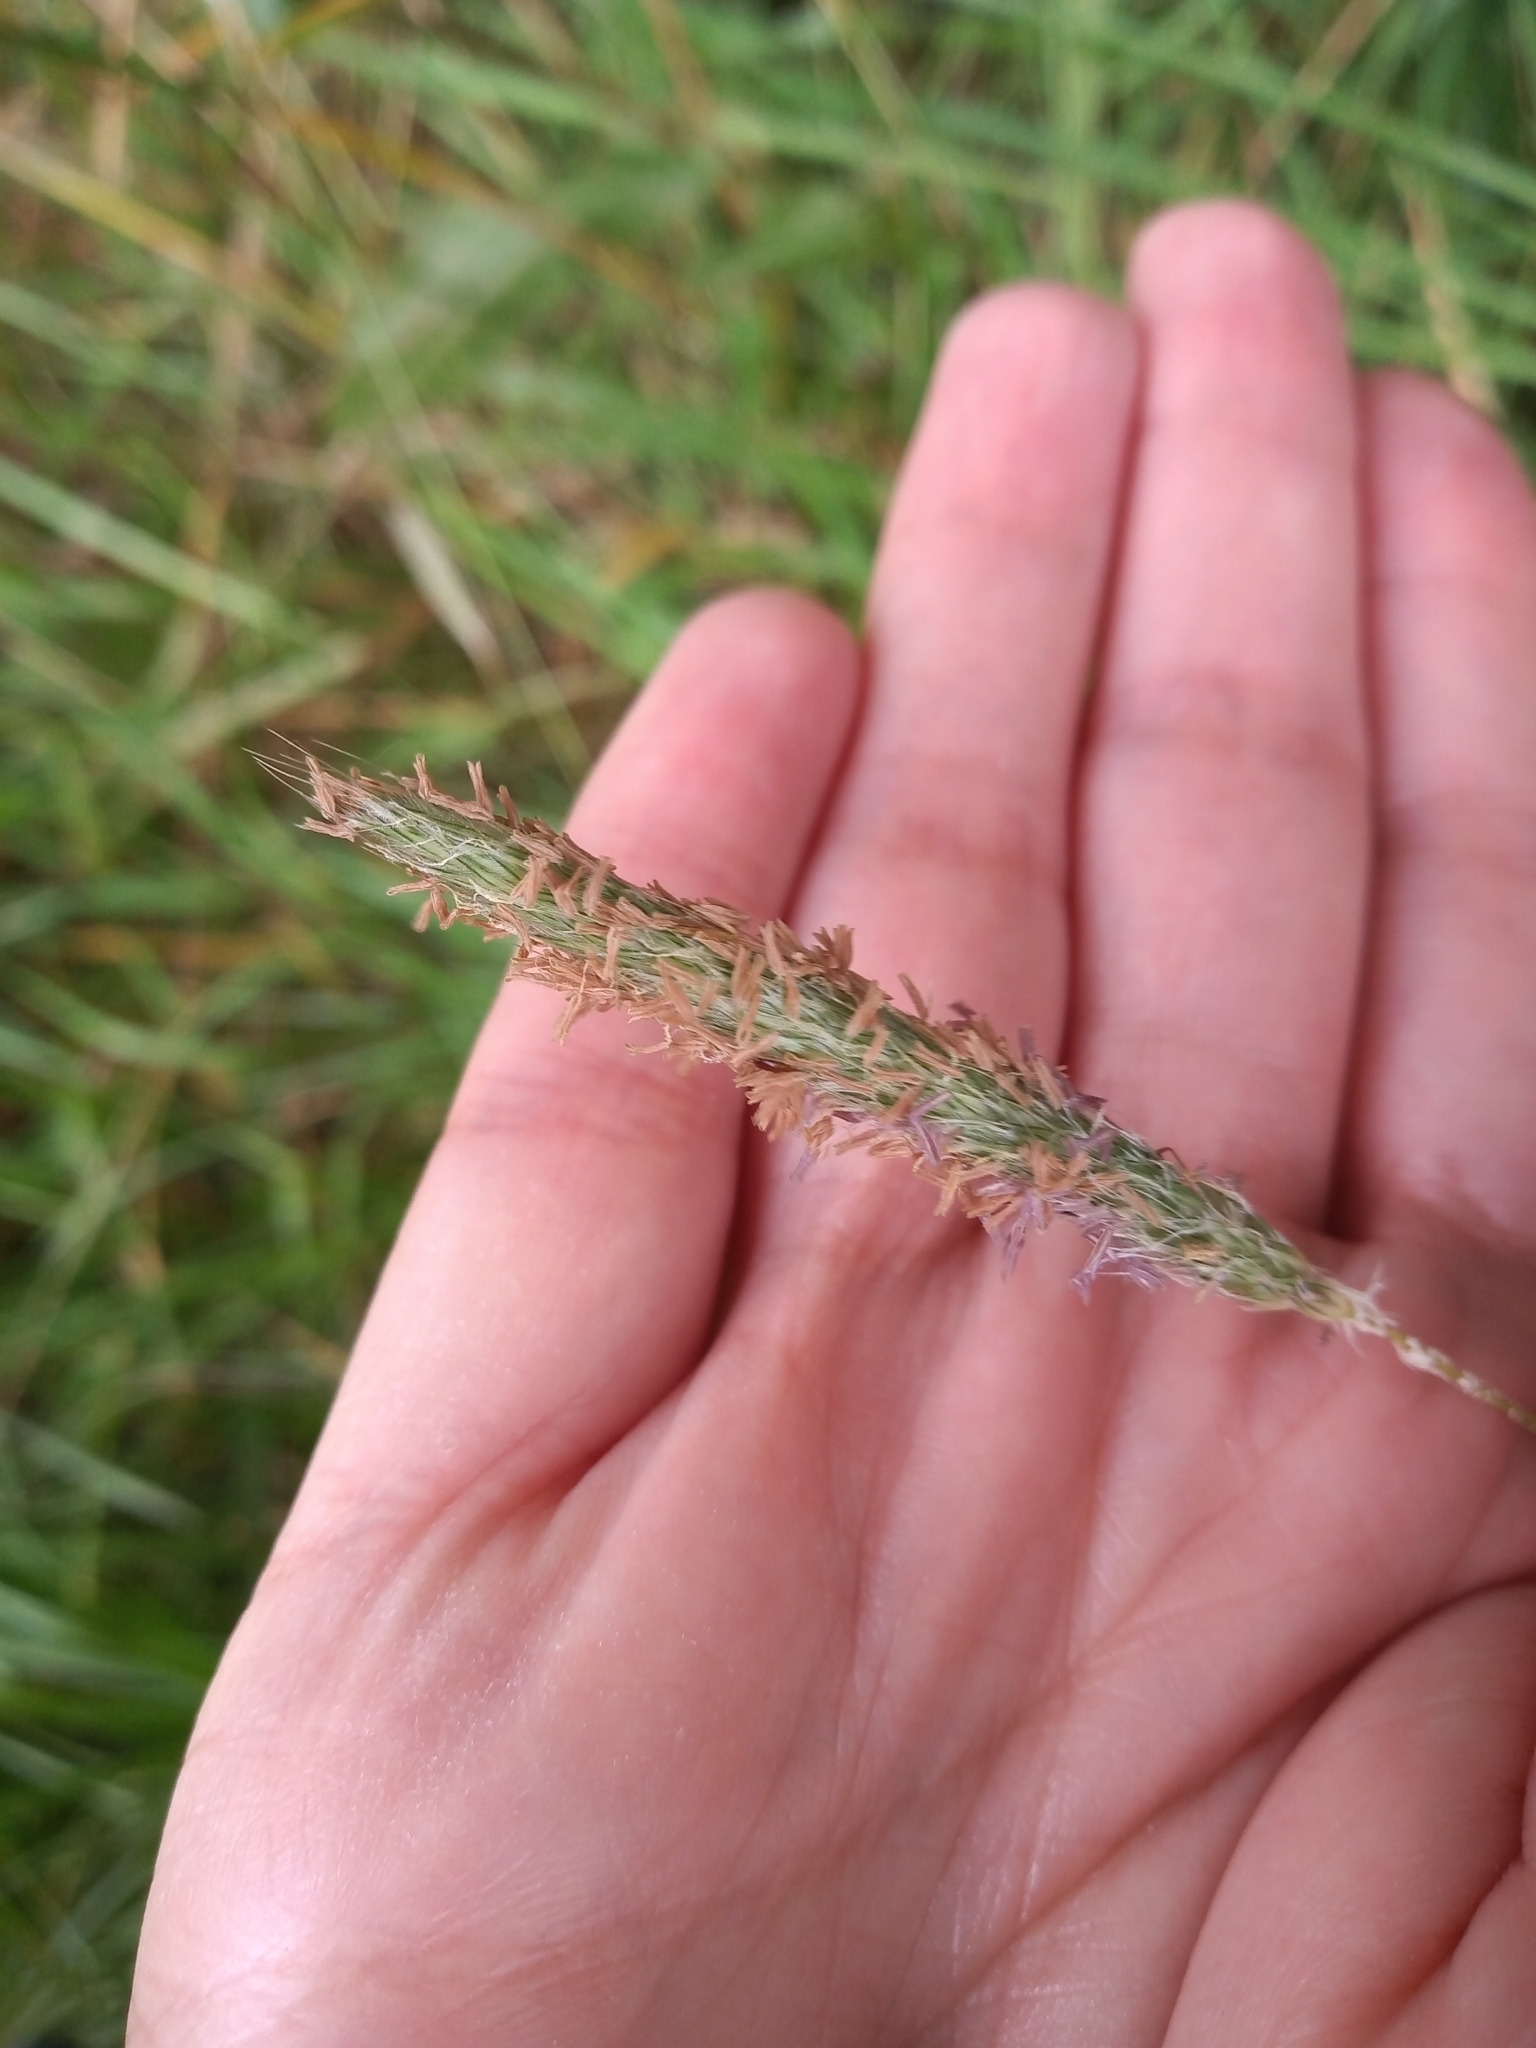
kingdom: Plantae
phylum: Tracheophyta
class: Liliopsida
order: Poales
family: Poaceae
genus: Alopecurus
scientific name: Alopecurus pratensis
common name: Meadow foxtail
